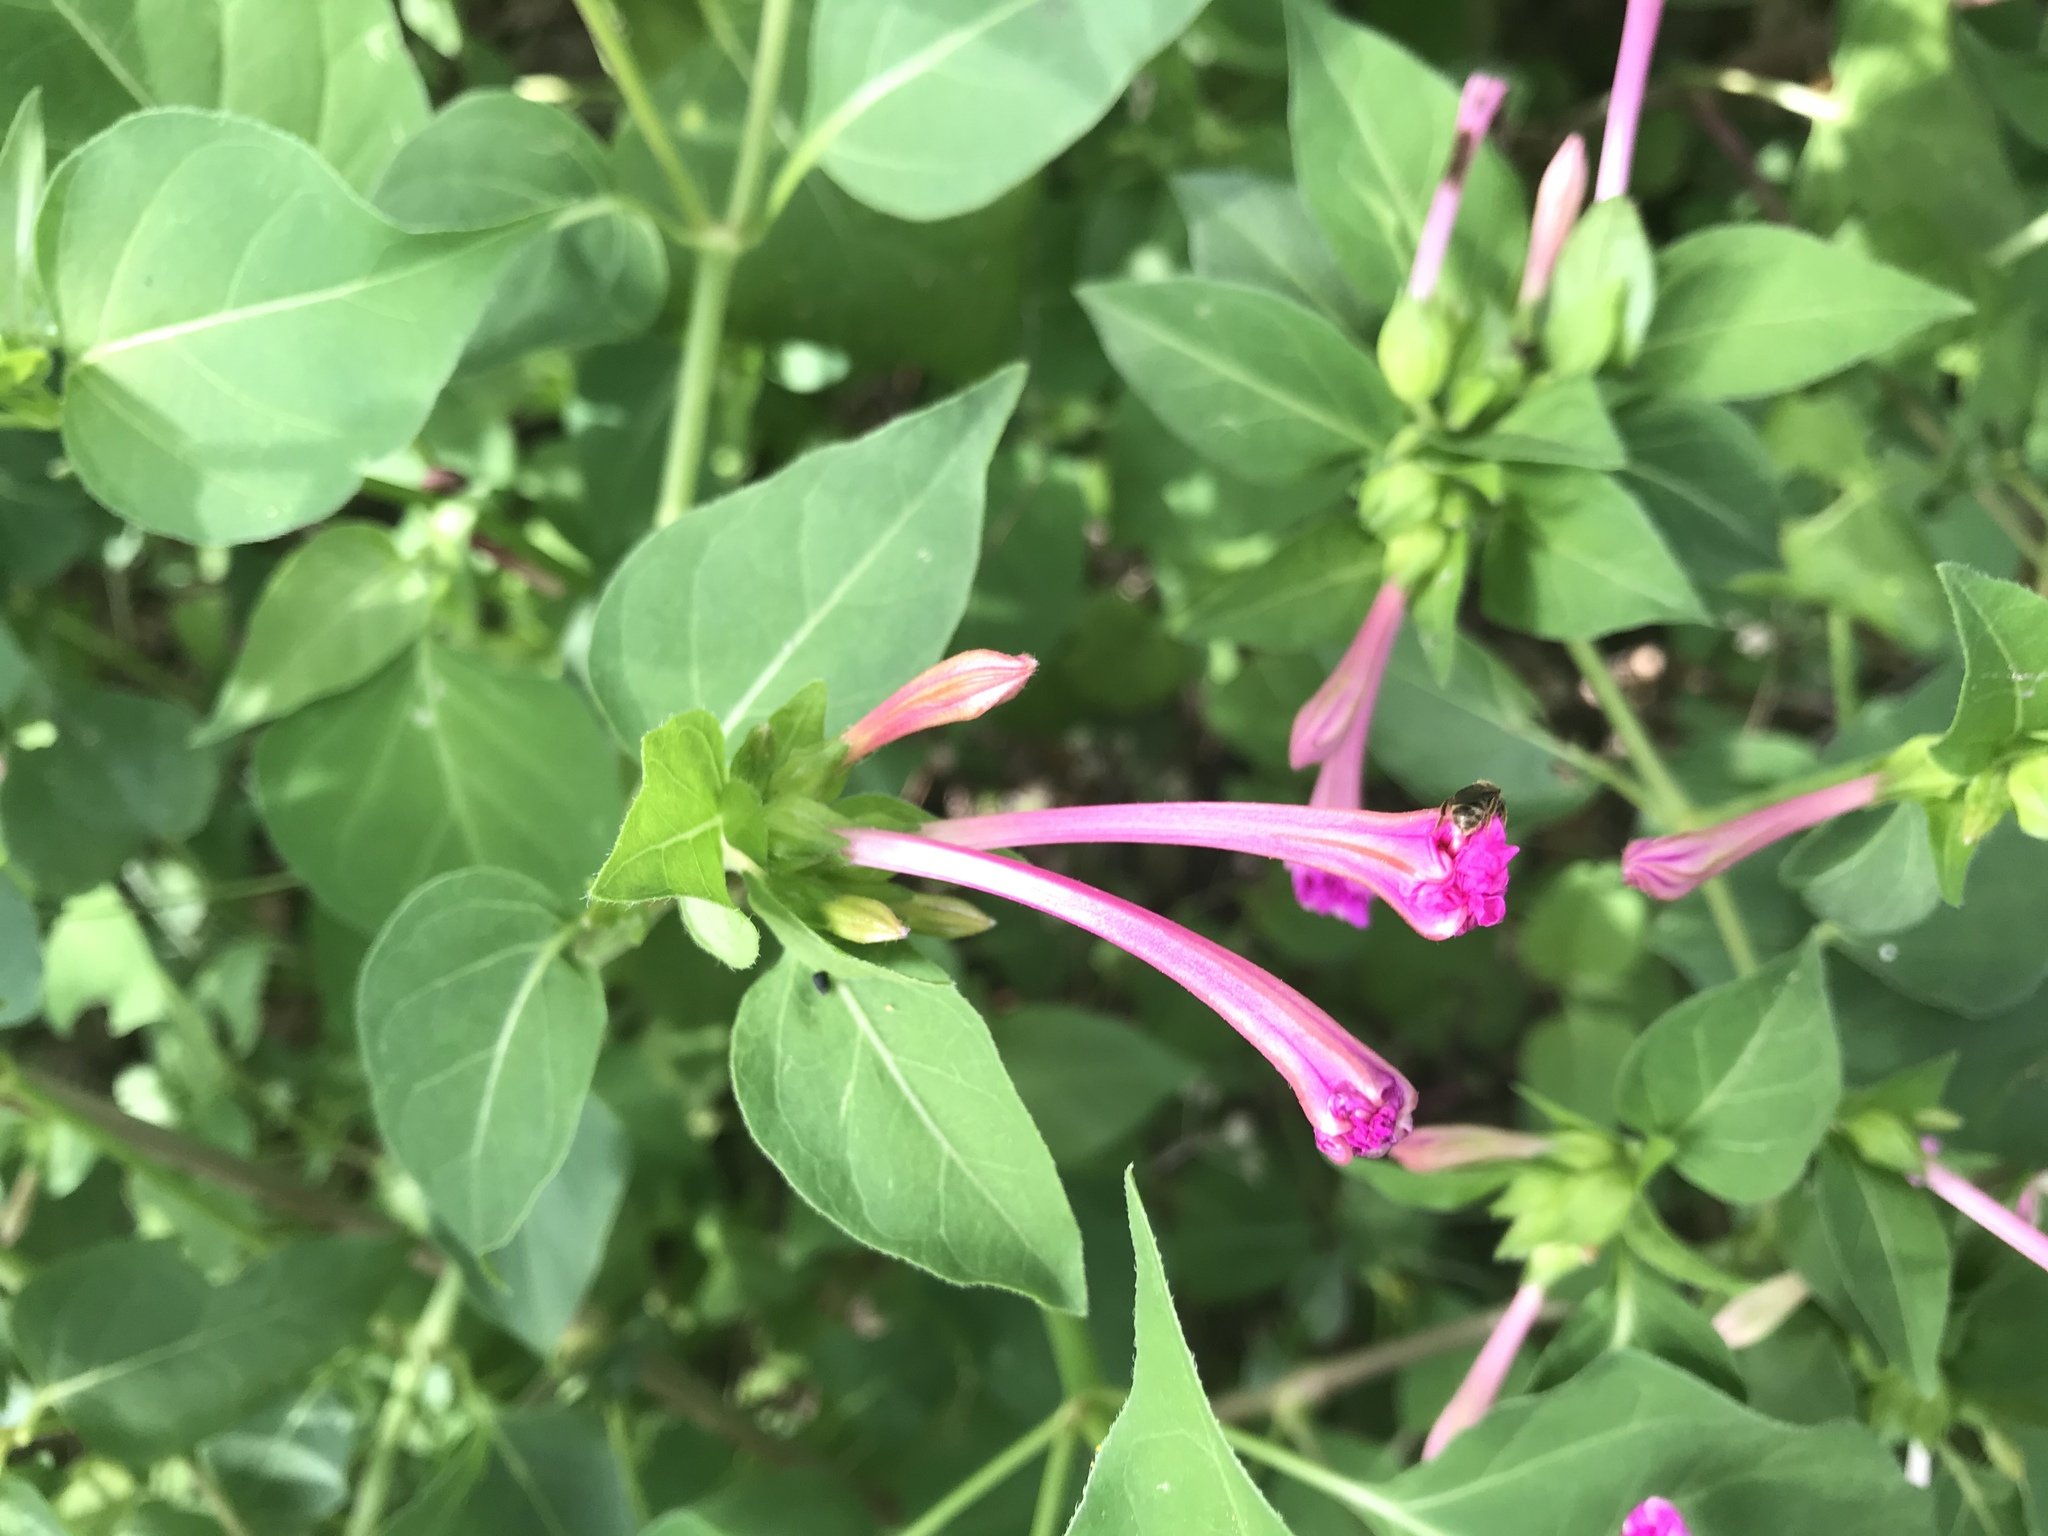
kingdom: Plantae
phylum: Tracheophyta
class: Magnoliopsida
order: Caryophyllales
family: Nyctaginaceae
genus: Mirabilis
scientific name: Mirabilis jalapa
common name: Marvel-of-peru
